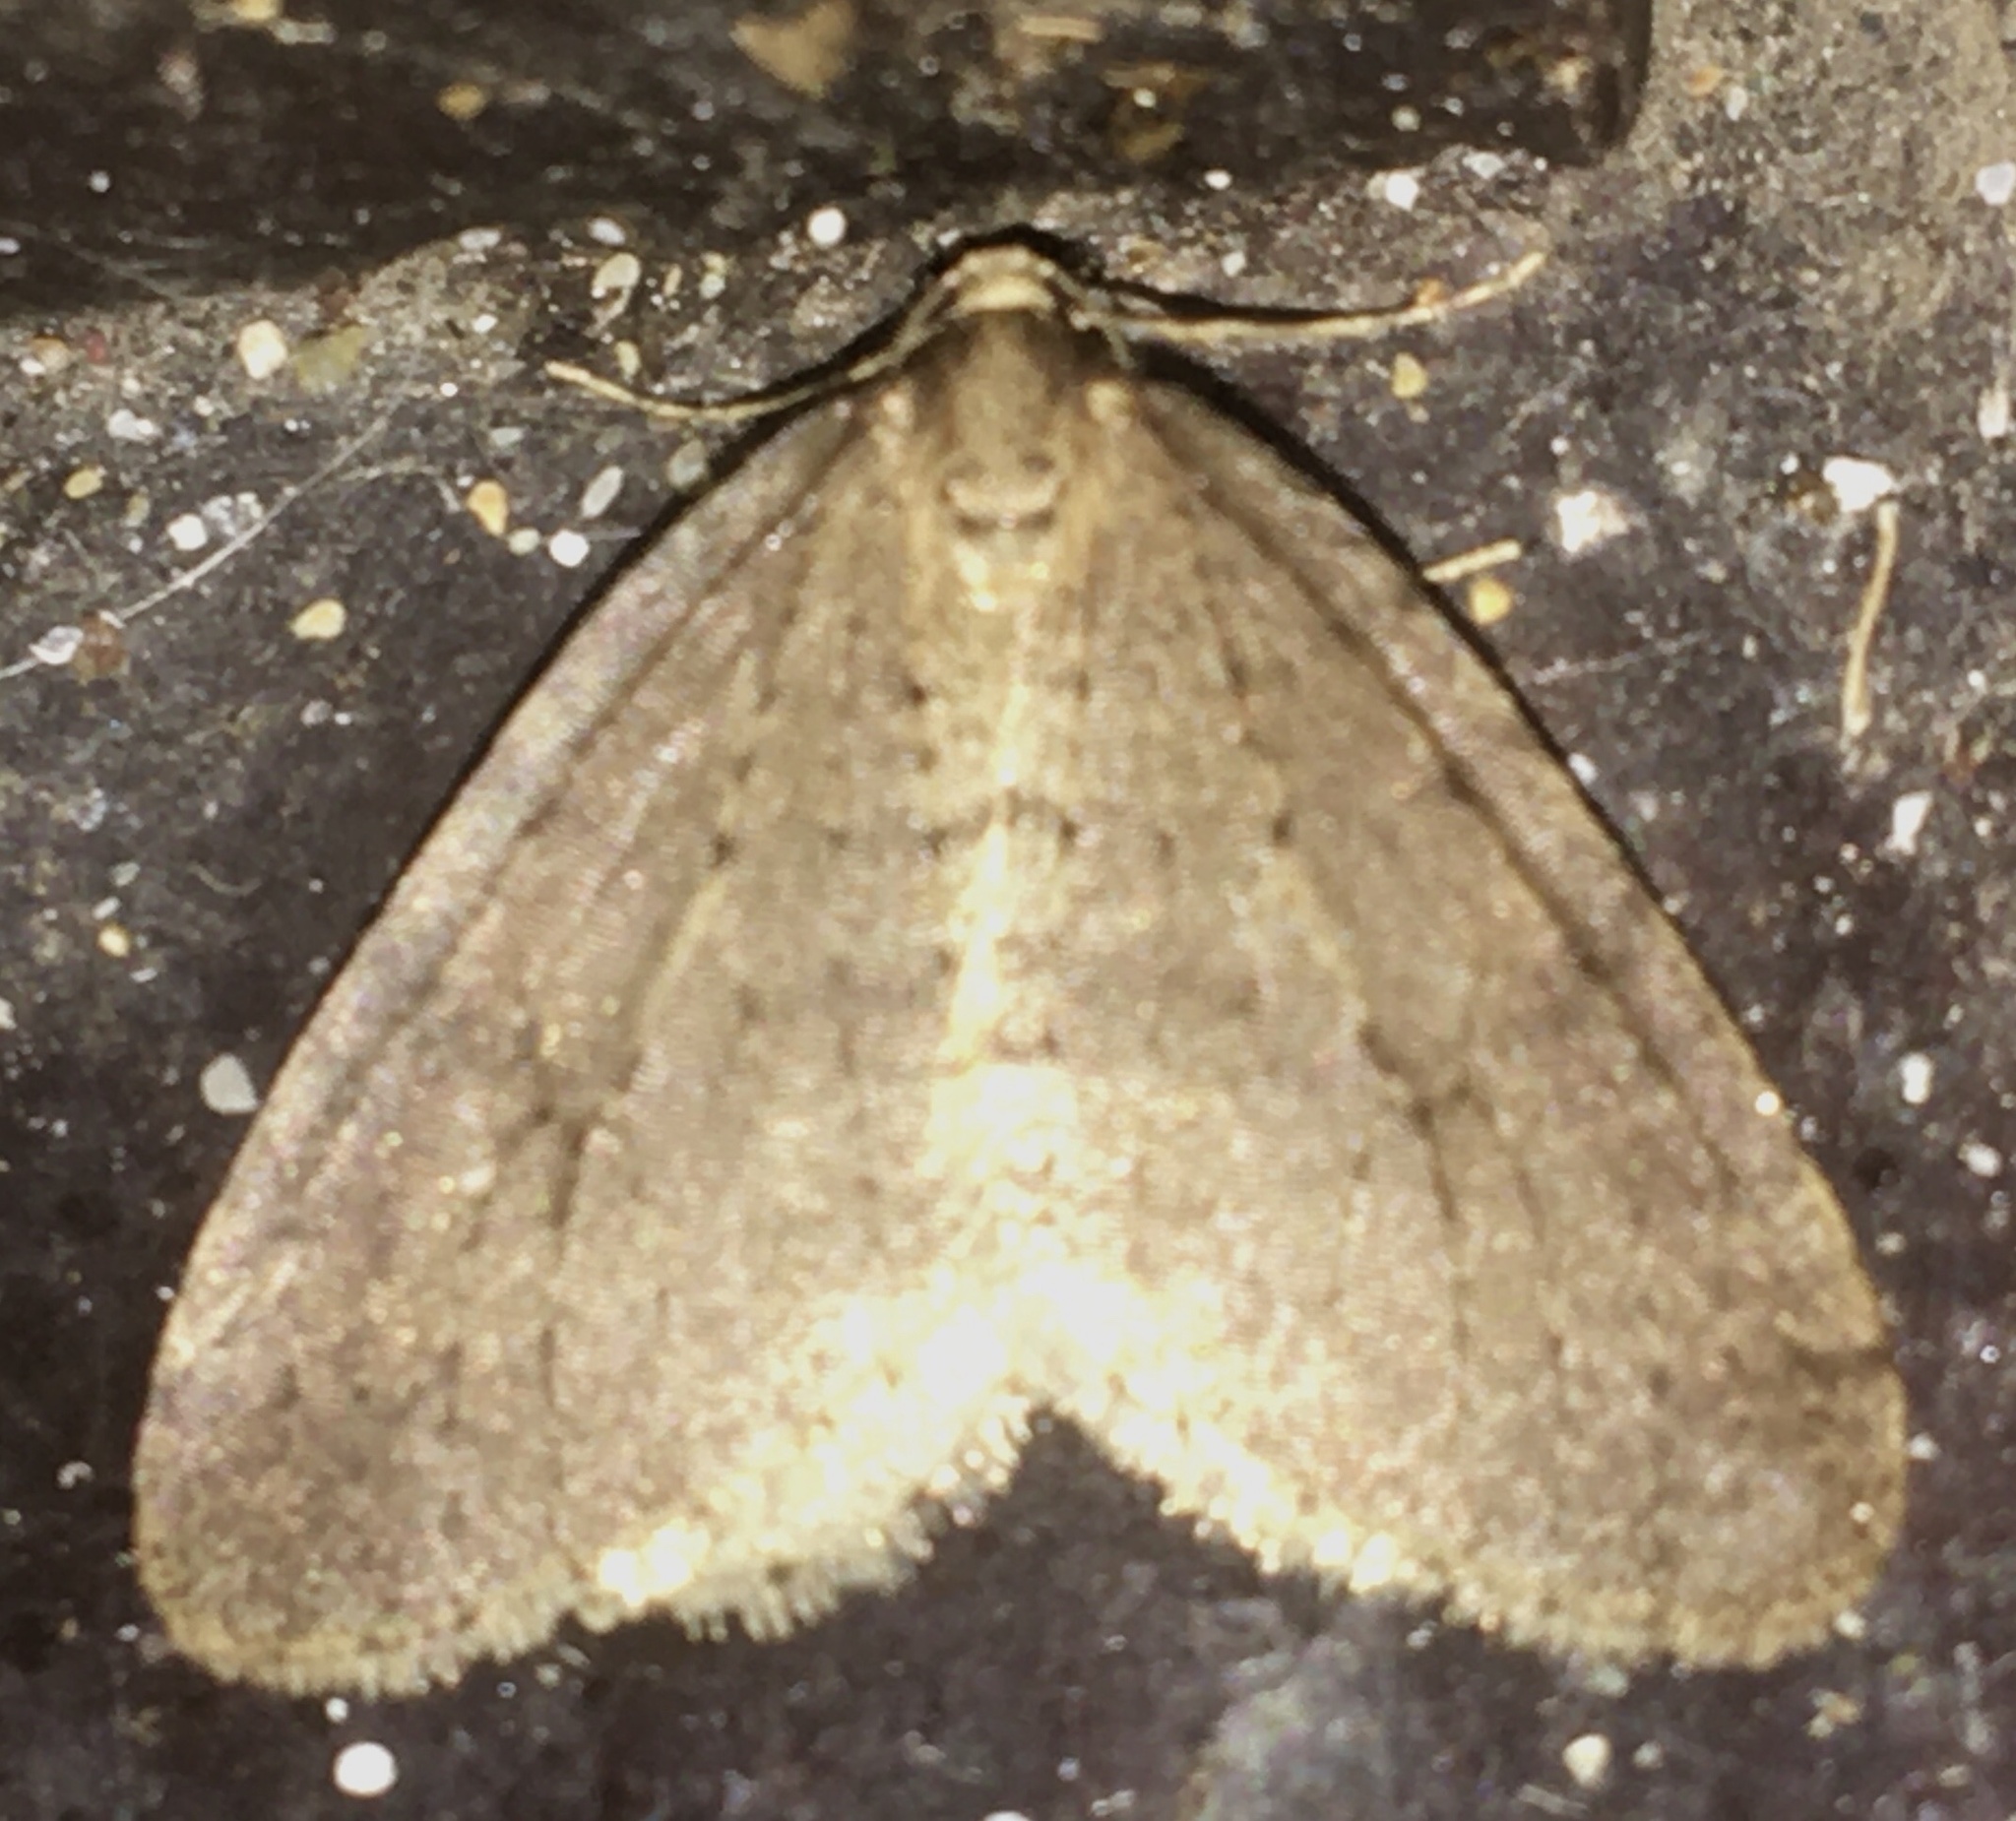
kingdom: Animalia
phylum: Arthropoda
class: Insecta
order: Lepidoptera
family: Geometridae
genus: Operophtera
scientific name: Operophtera brumata
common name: Winter moth
